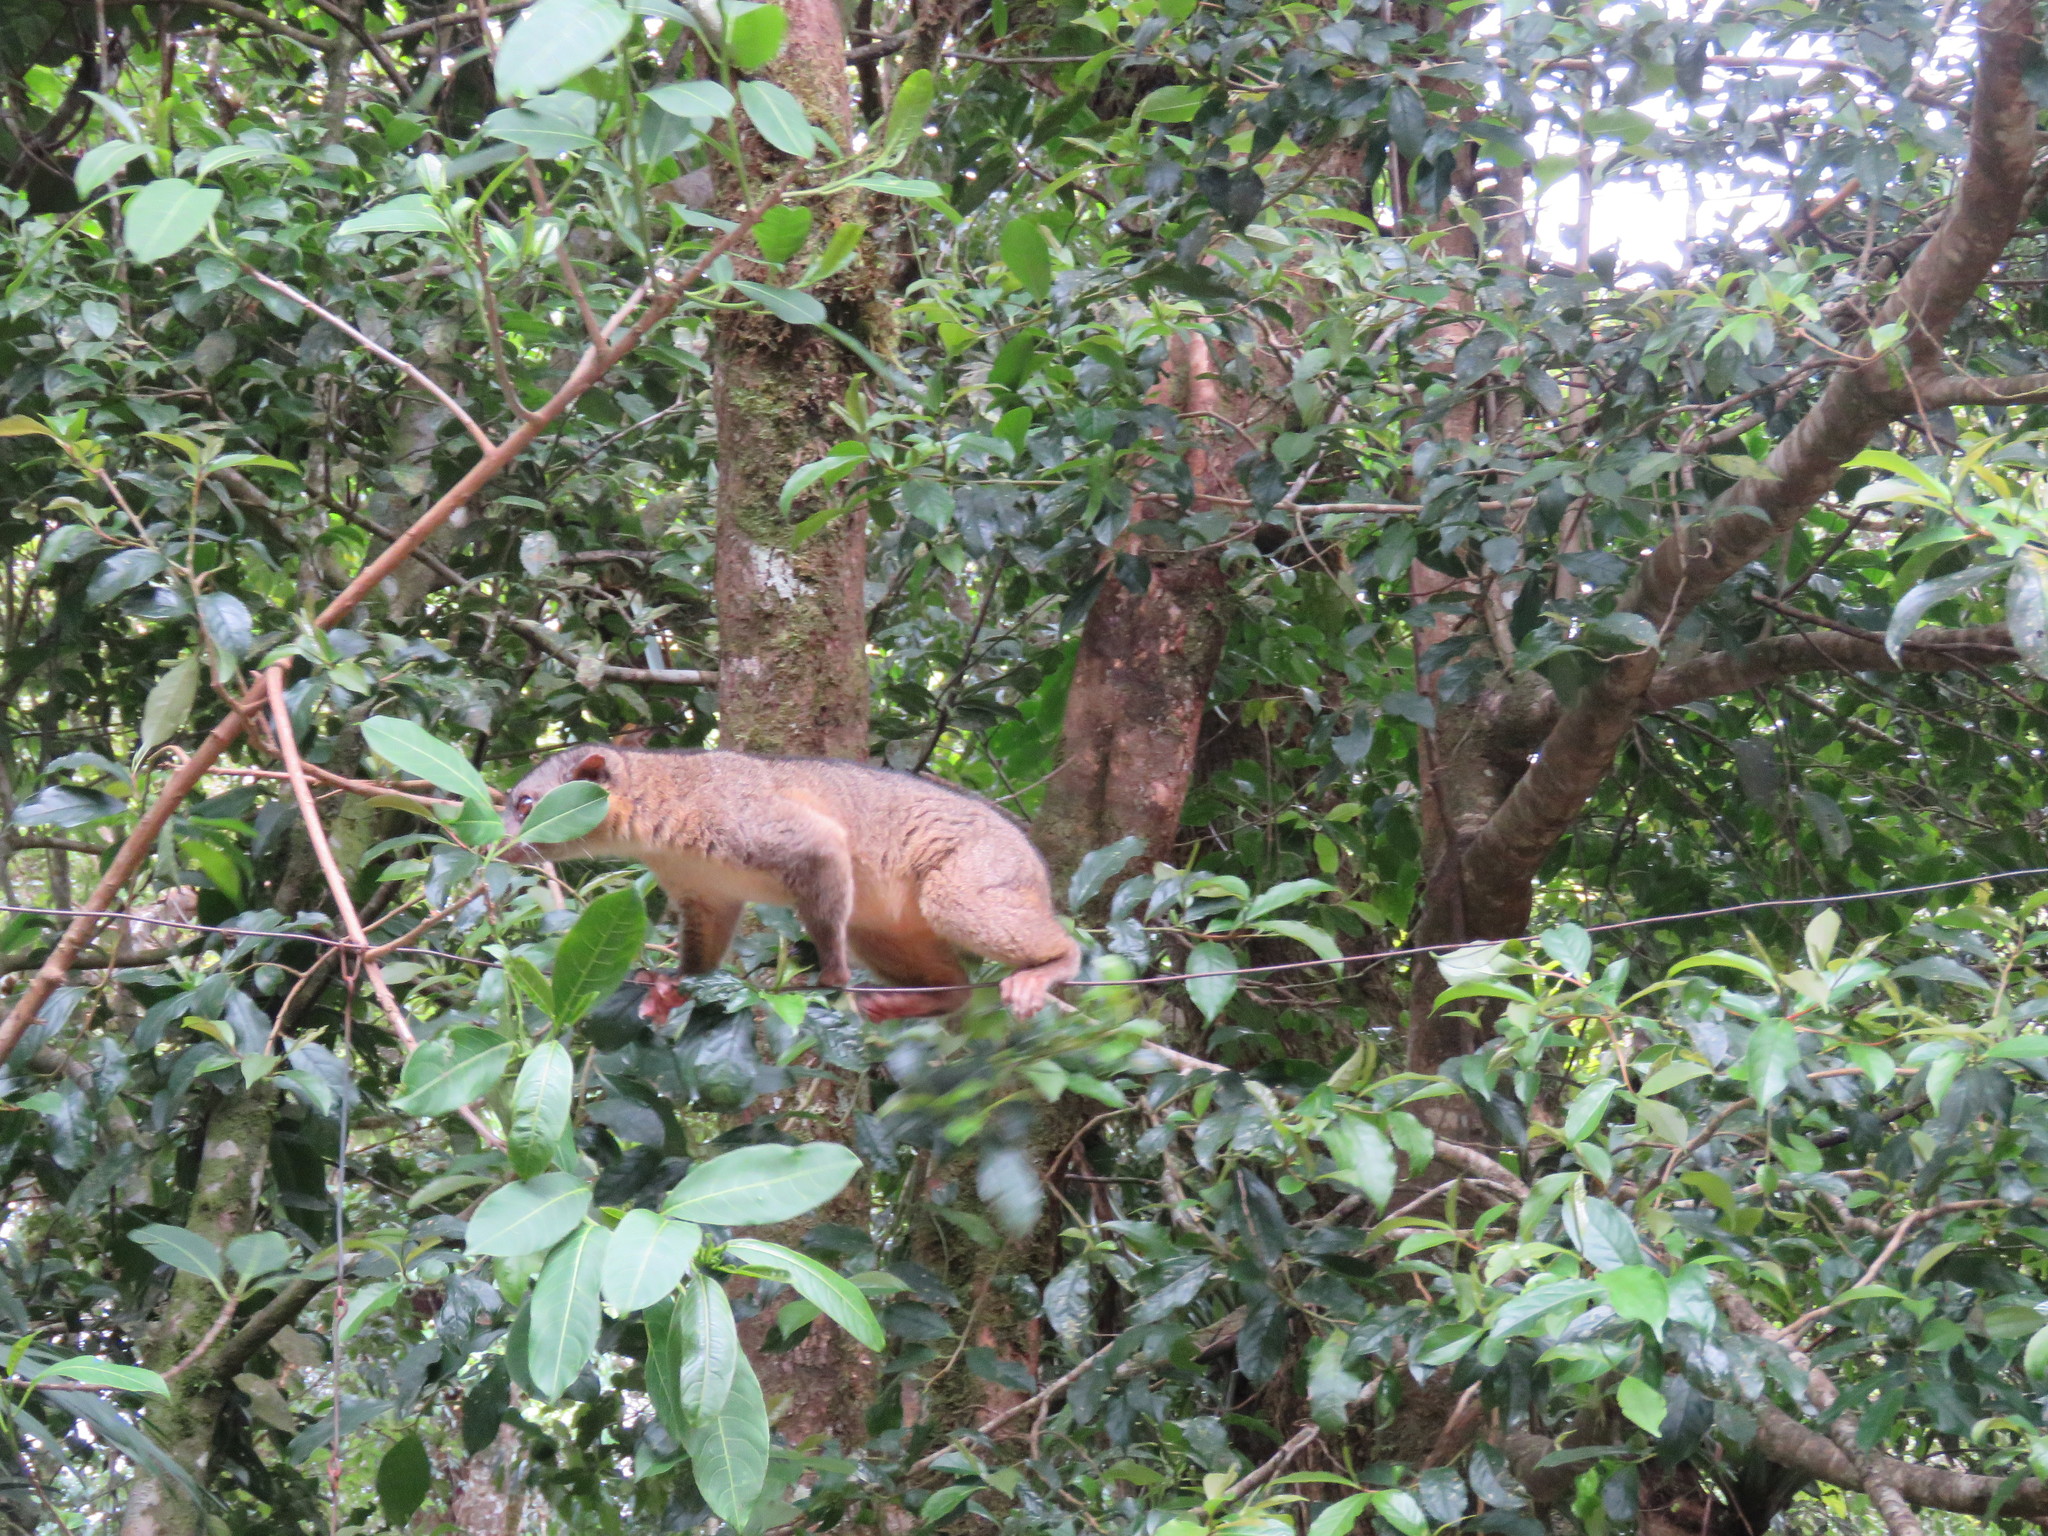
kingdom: Animalia
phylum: Chordata
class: Mammalia
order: Carnivora
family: Procyonidae
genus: Bassaricyon
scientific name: Bassaricyon gabbii
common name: Olingo
